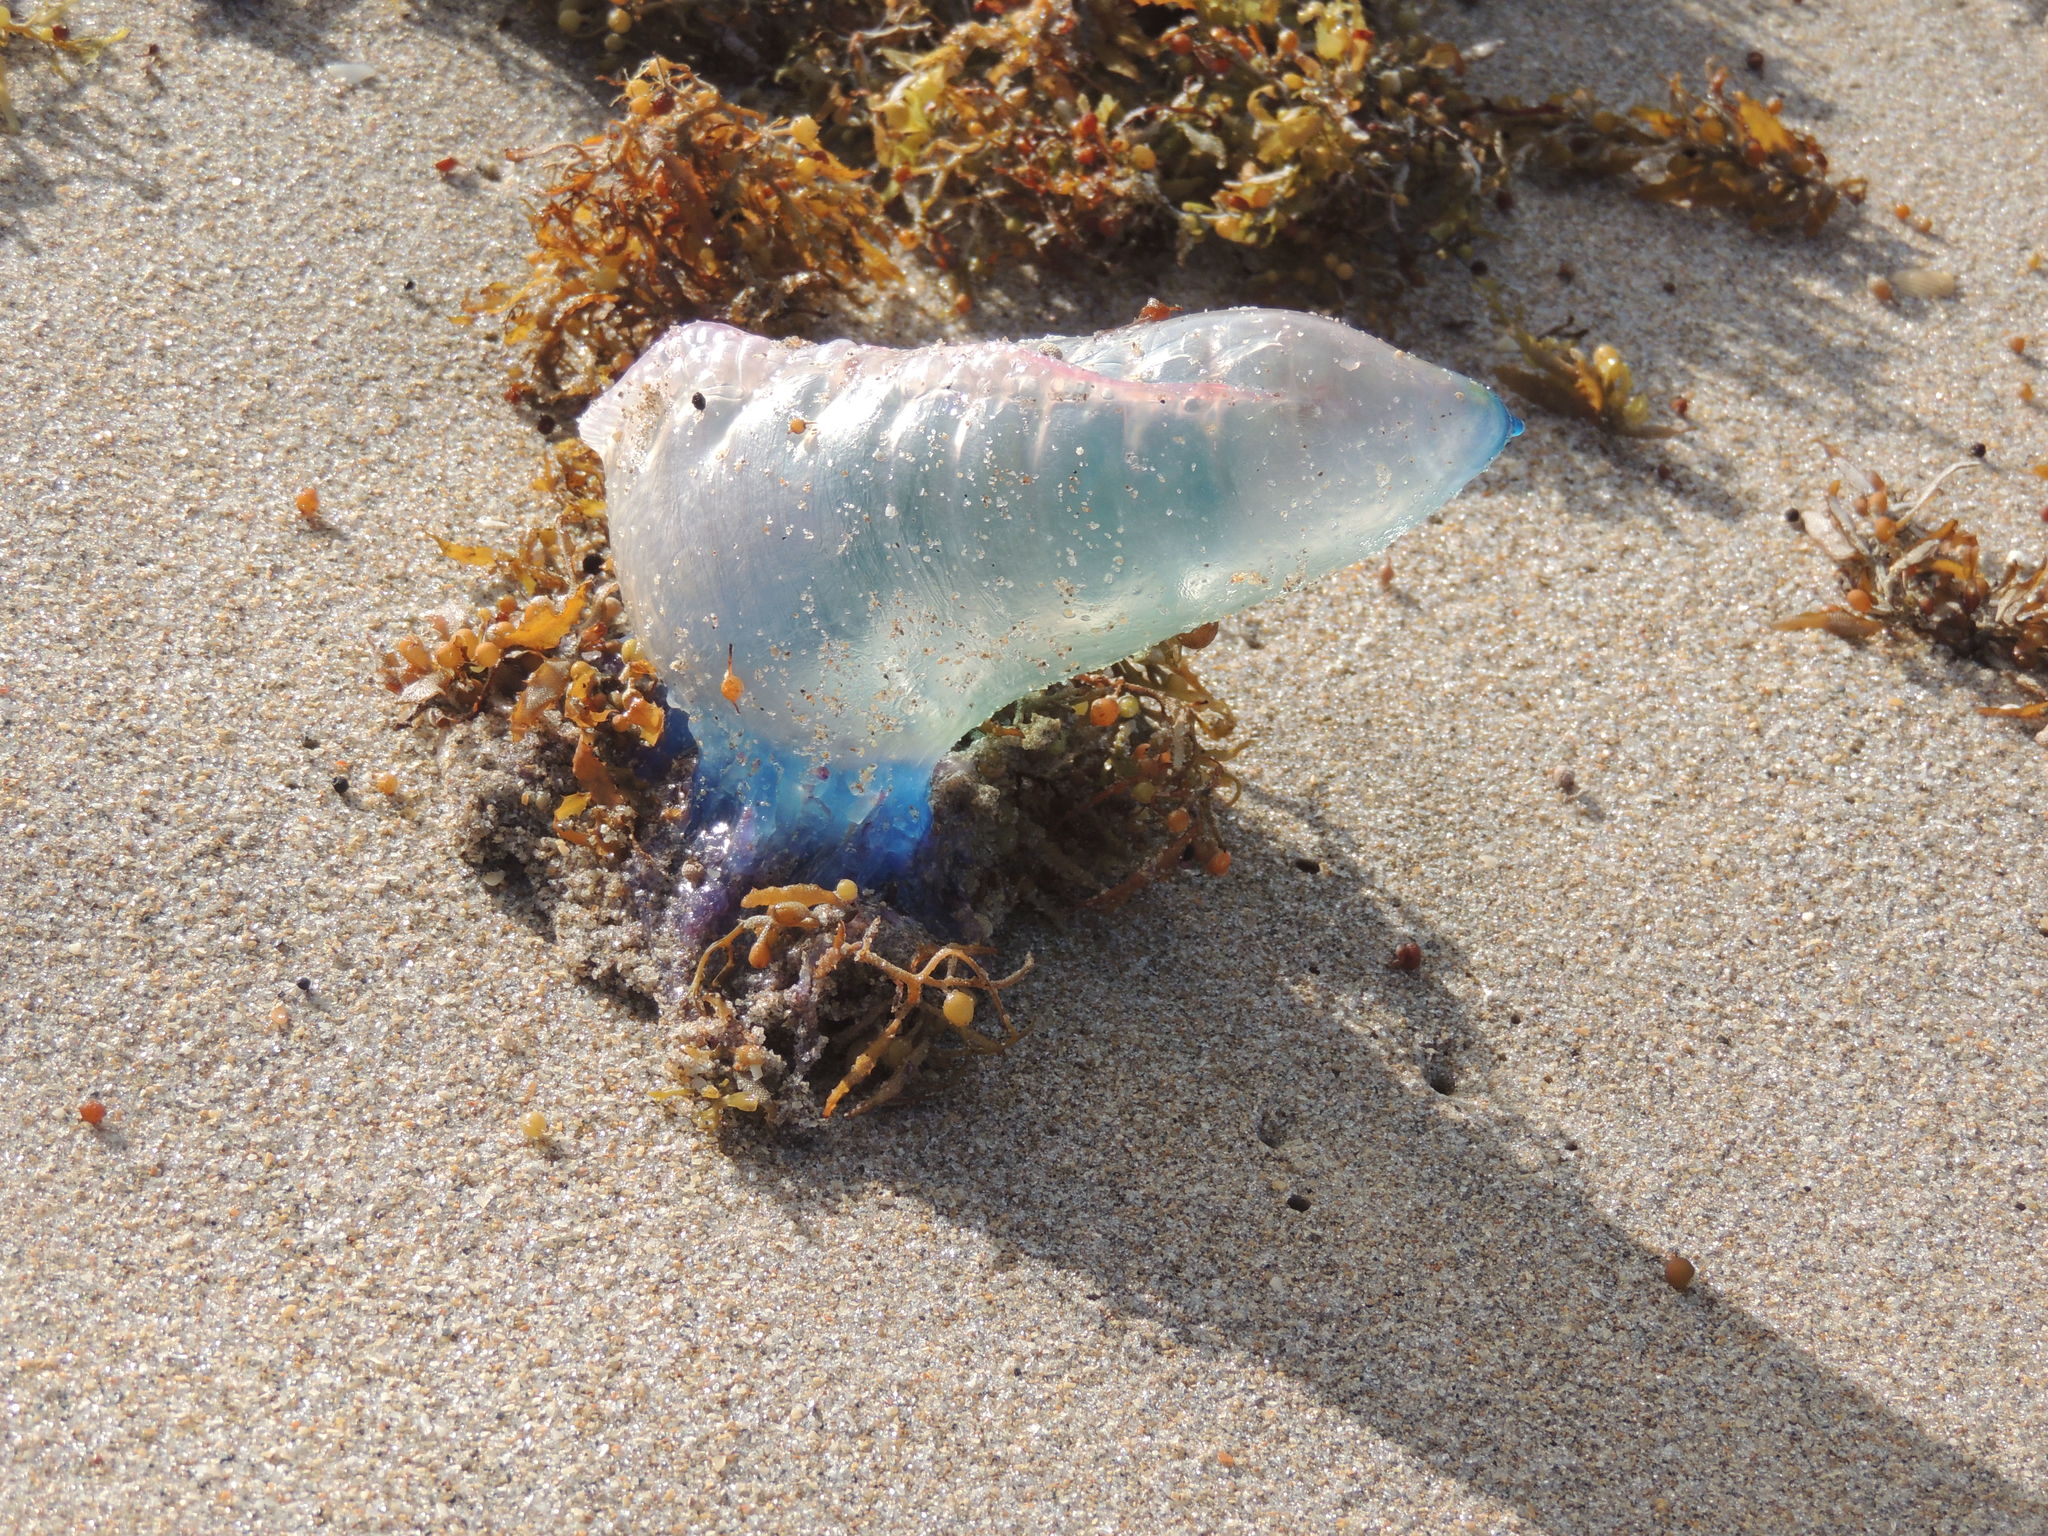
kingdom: Animalia
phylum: Cnidaria
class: Hydrozoa
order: Siphonophorae
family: Physaliidae
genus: Physalia
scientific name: Physalia physalis
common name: Portuguese man-of-war
